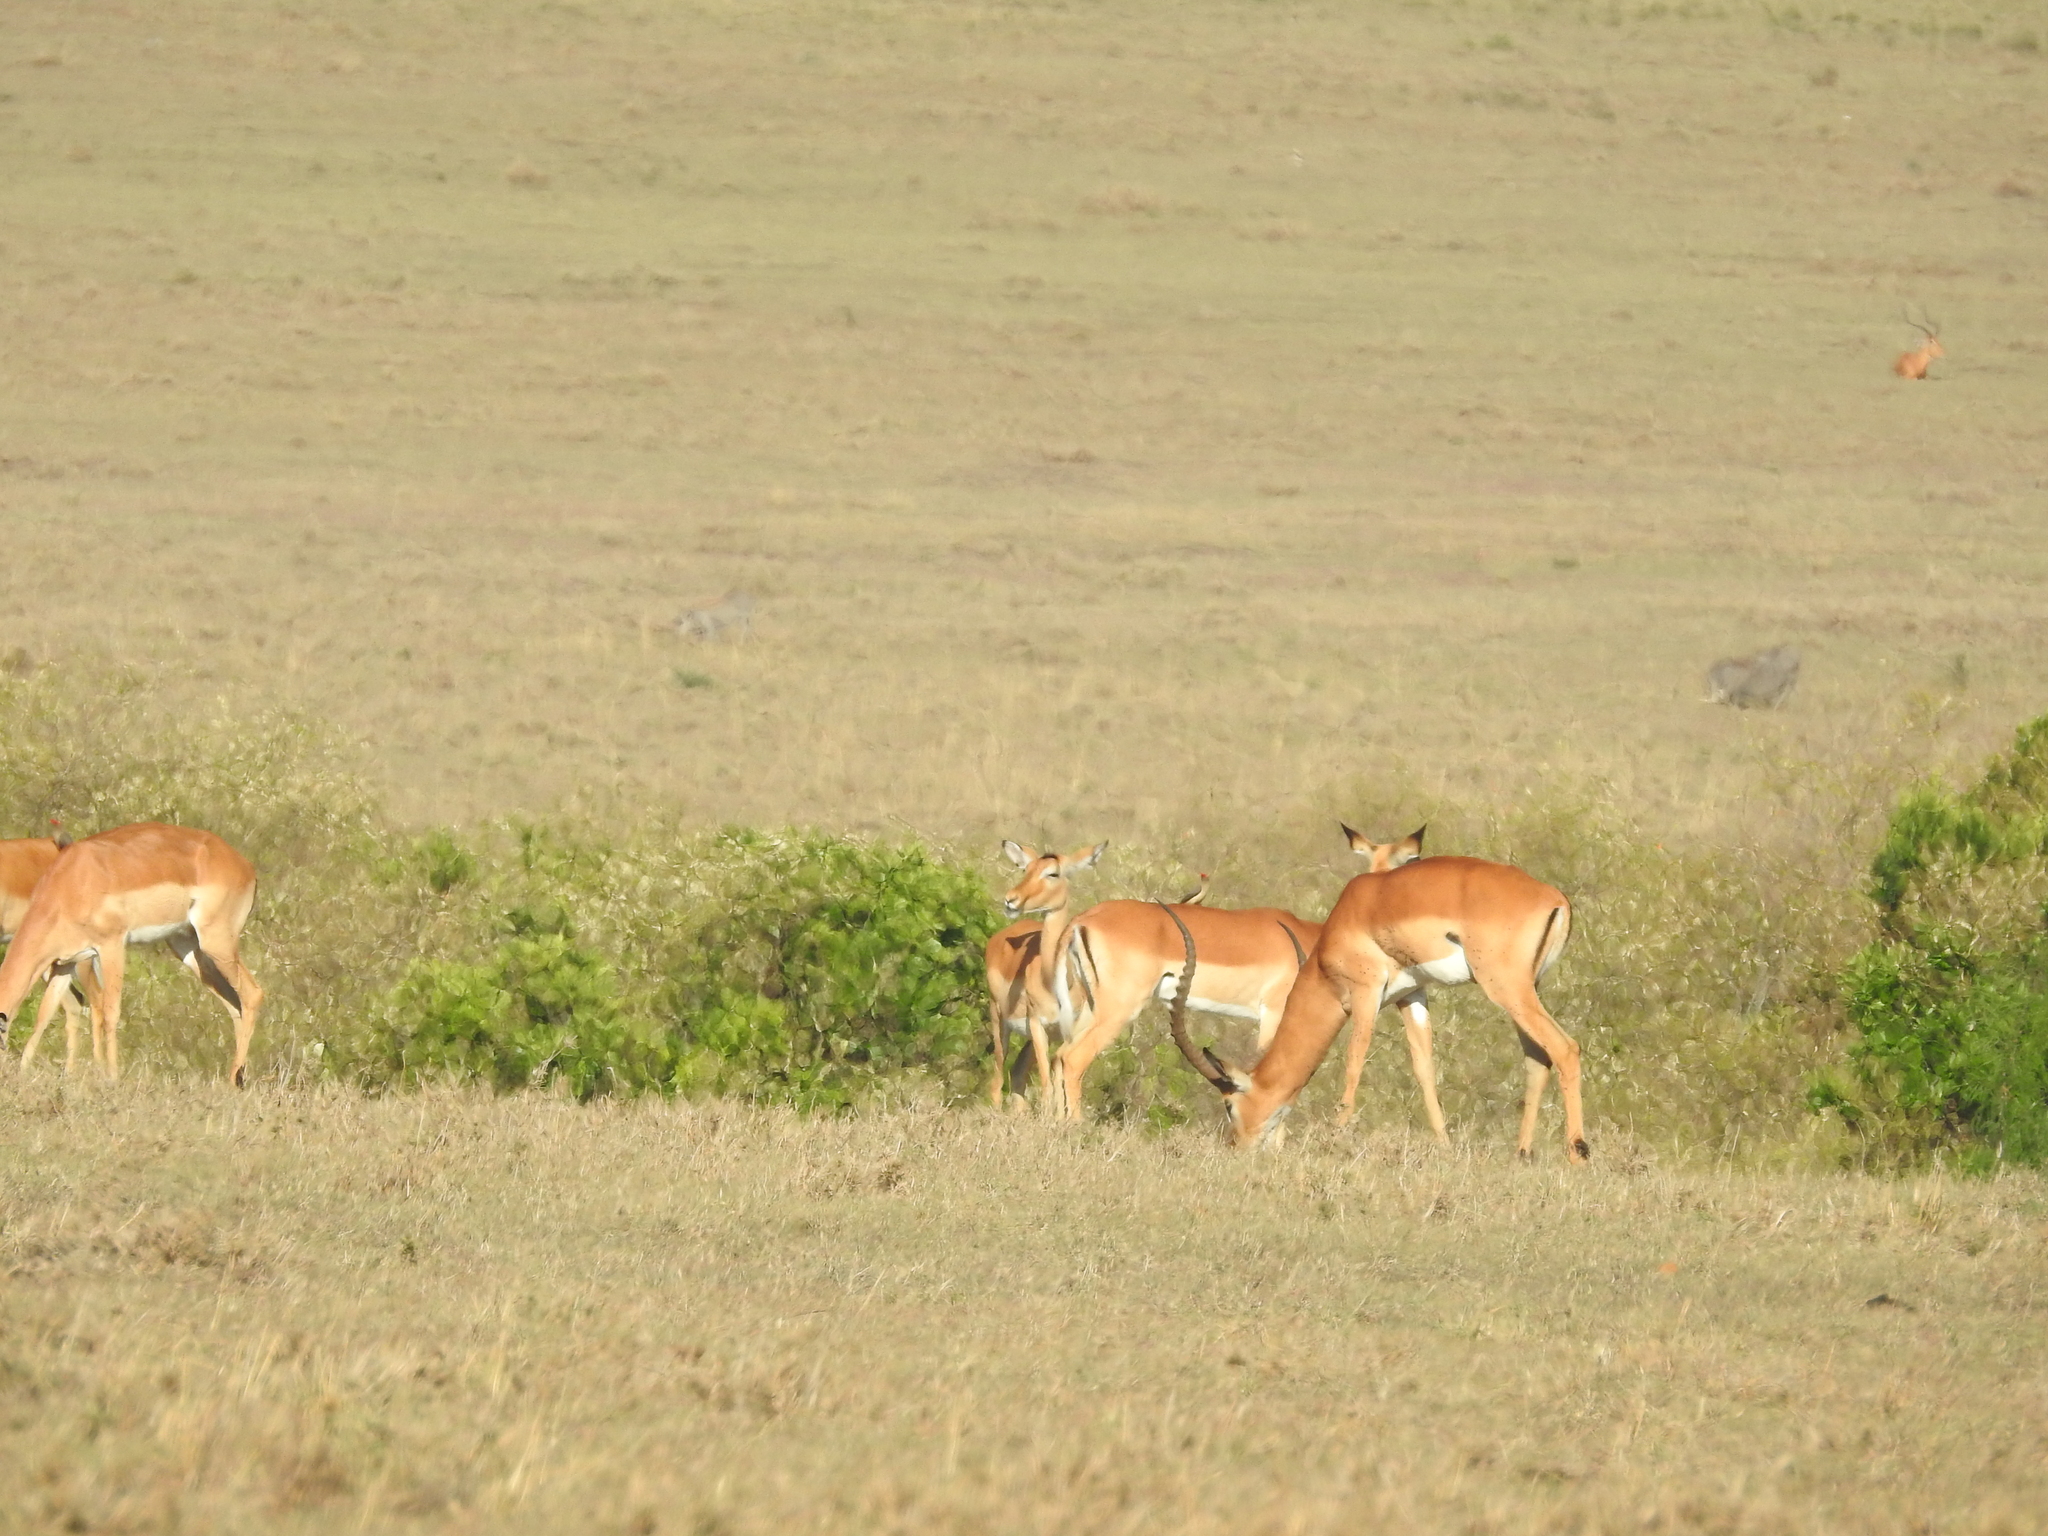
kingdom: Animalia
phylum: Chordata
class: Mammalia
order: Artiodactyla
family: Bovidae
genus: Aepyceros
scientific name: Aepyceros melampus
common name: Impala
